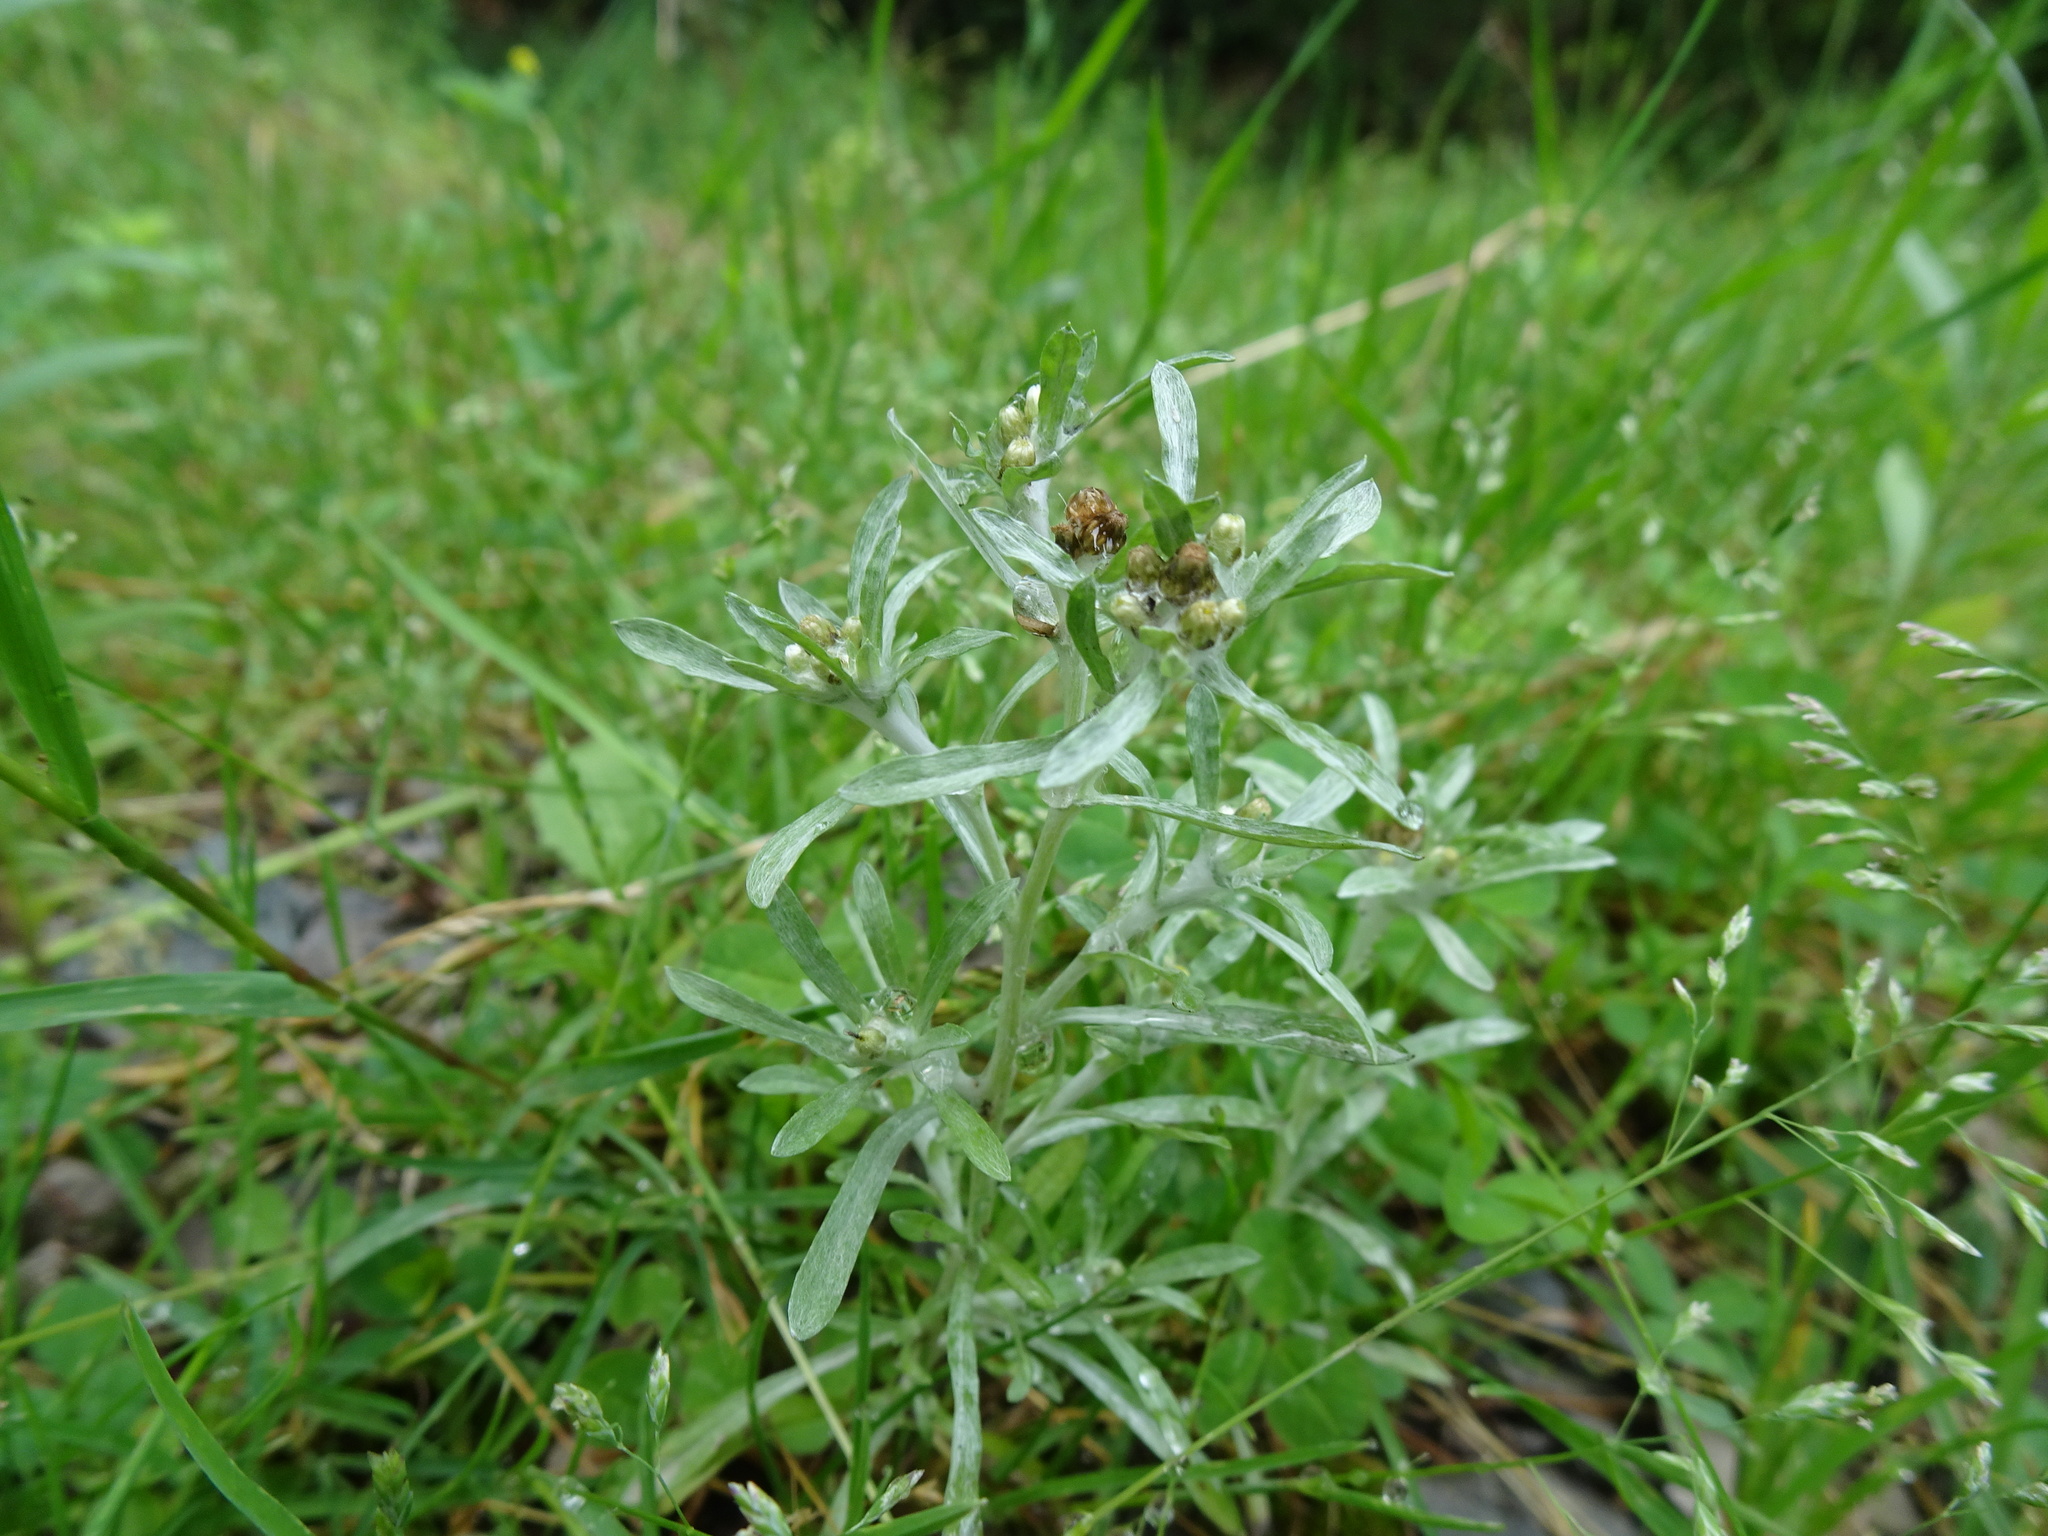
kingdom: Plantae
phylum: Tracheophyta
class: Magnoliopsida
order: Asterales
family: Asteraceae
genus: Gnaphalium
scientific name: Gnaphalium uliginosum
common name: Marsh cudweed
